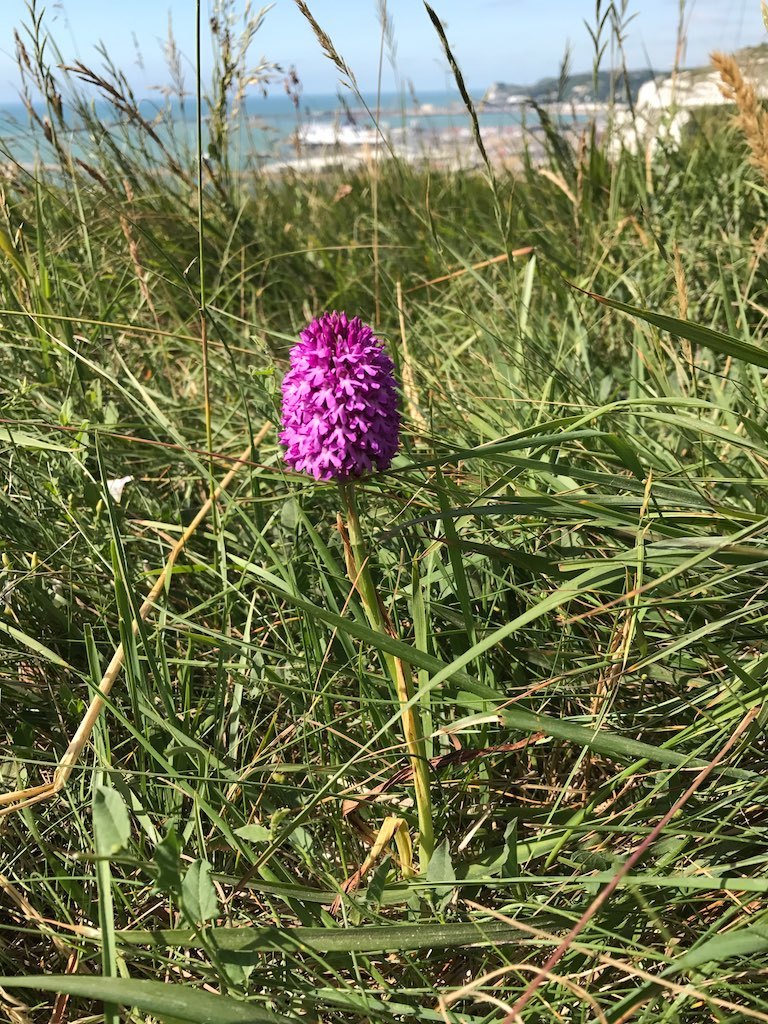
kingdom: Plantae
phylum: Tracheophyta
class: Liliopsida
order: Asparagales
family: Orchidaceae
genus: Anacamptis
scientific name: Anacamptis pyramidalis
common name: Pyramidal orchid
